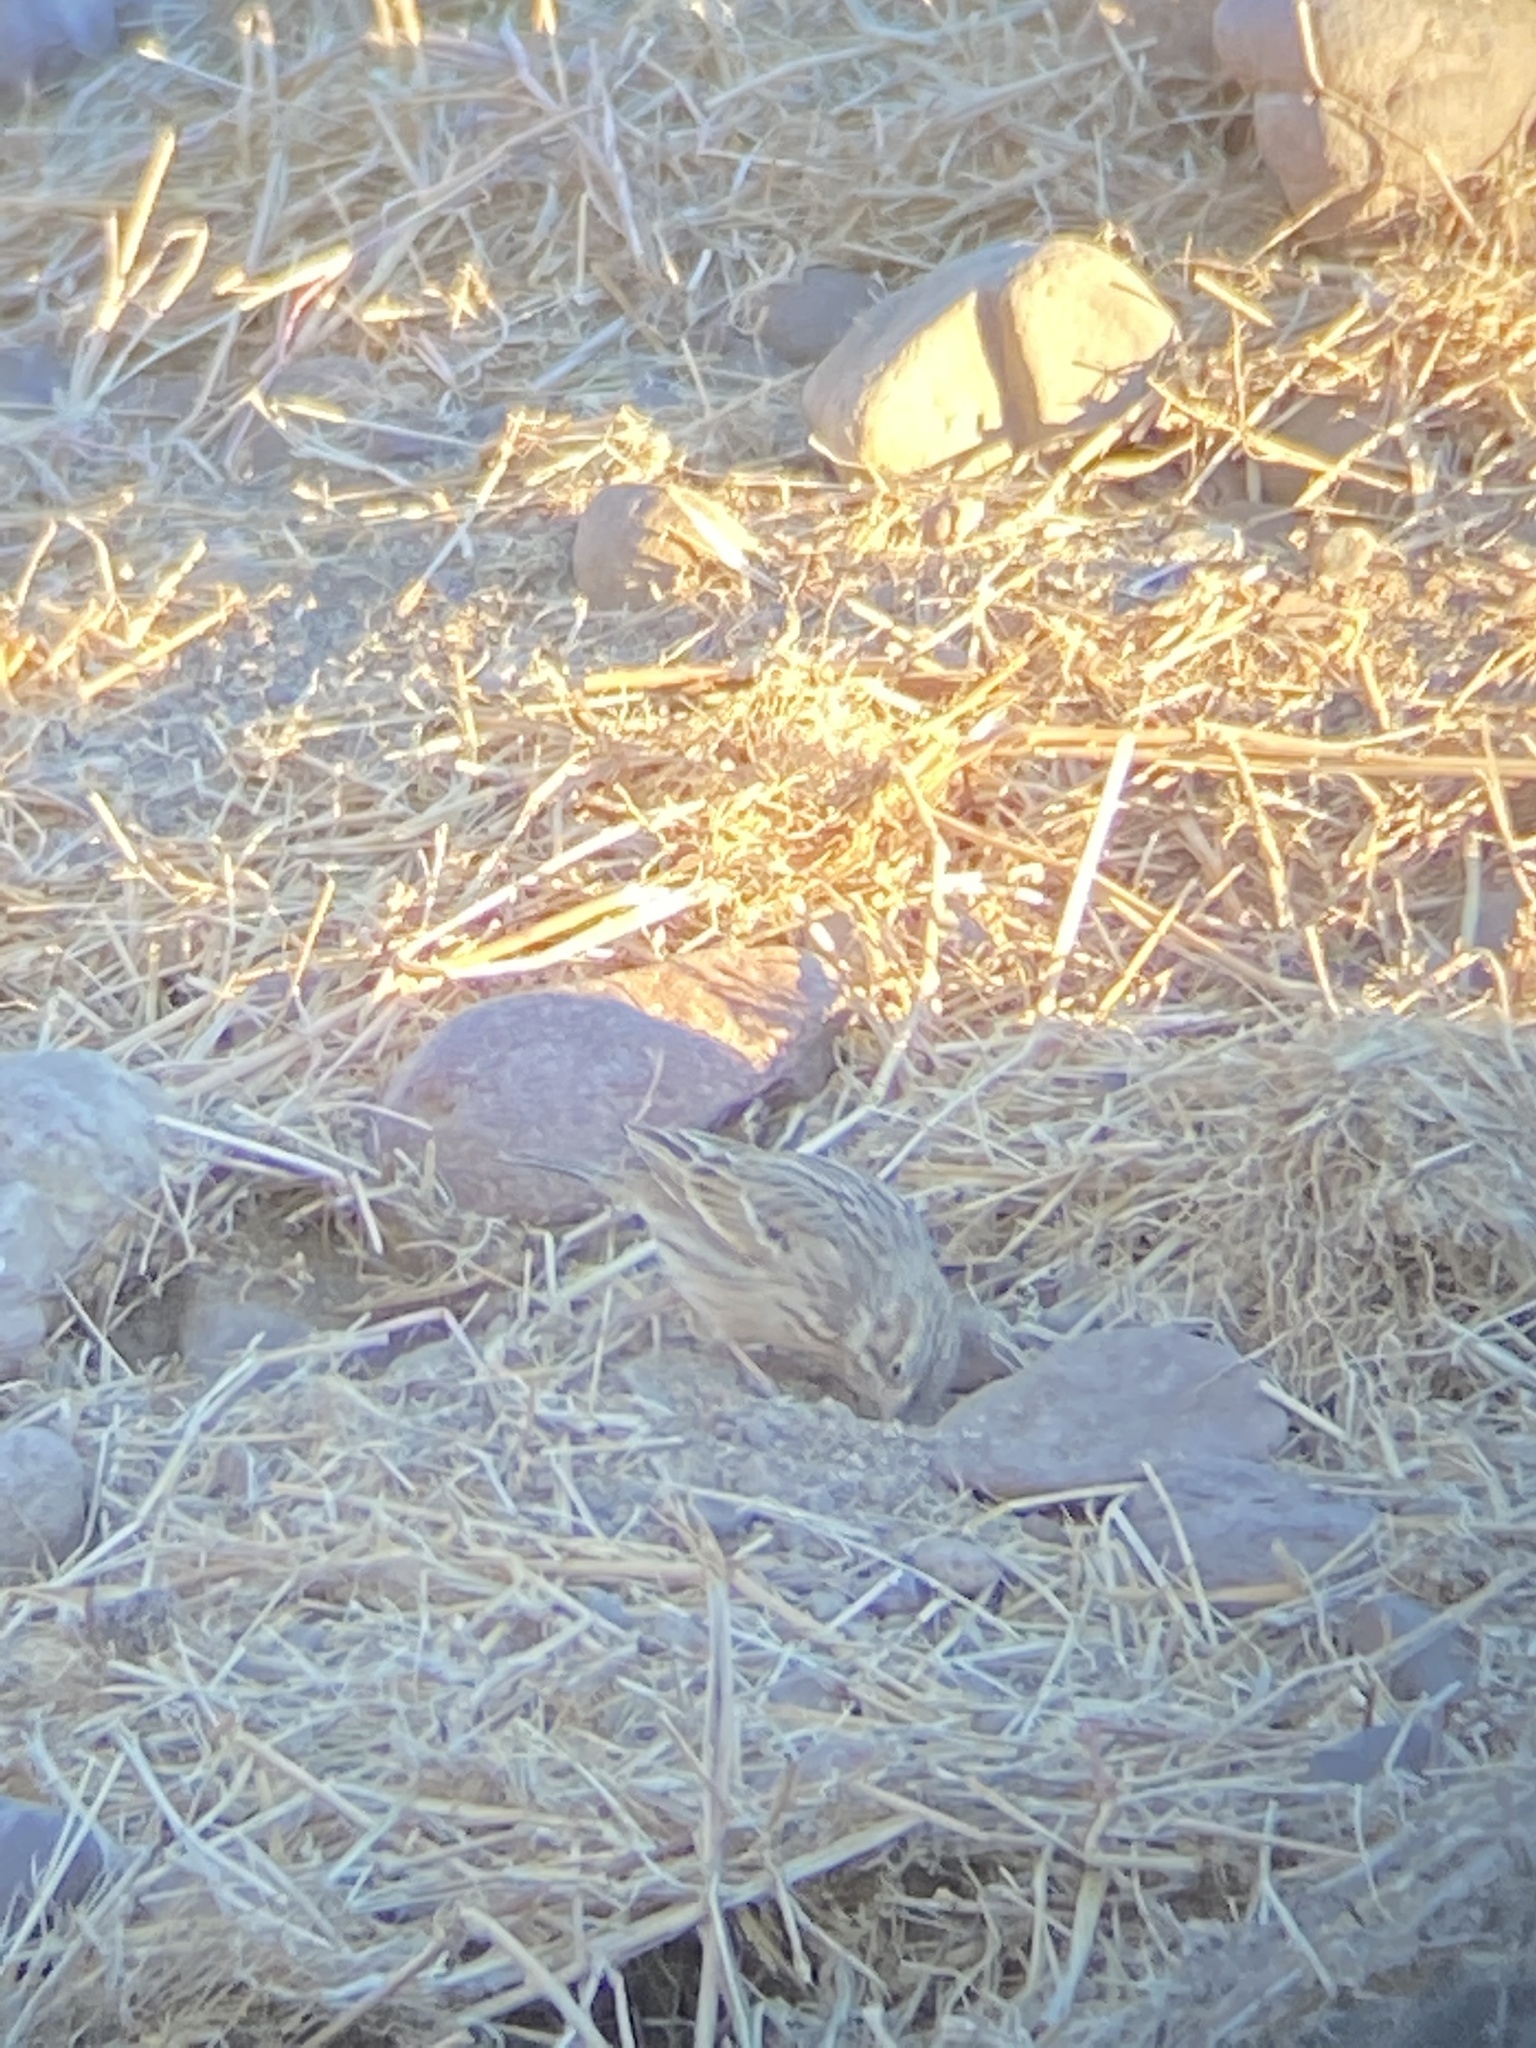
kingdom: Animalia
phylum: Chordata
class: Aves
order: Passeriformes
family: Passerellidae
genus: Pooecetes
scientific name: Pooecetes gramineus
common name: Vesper sparrow
